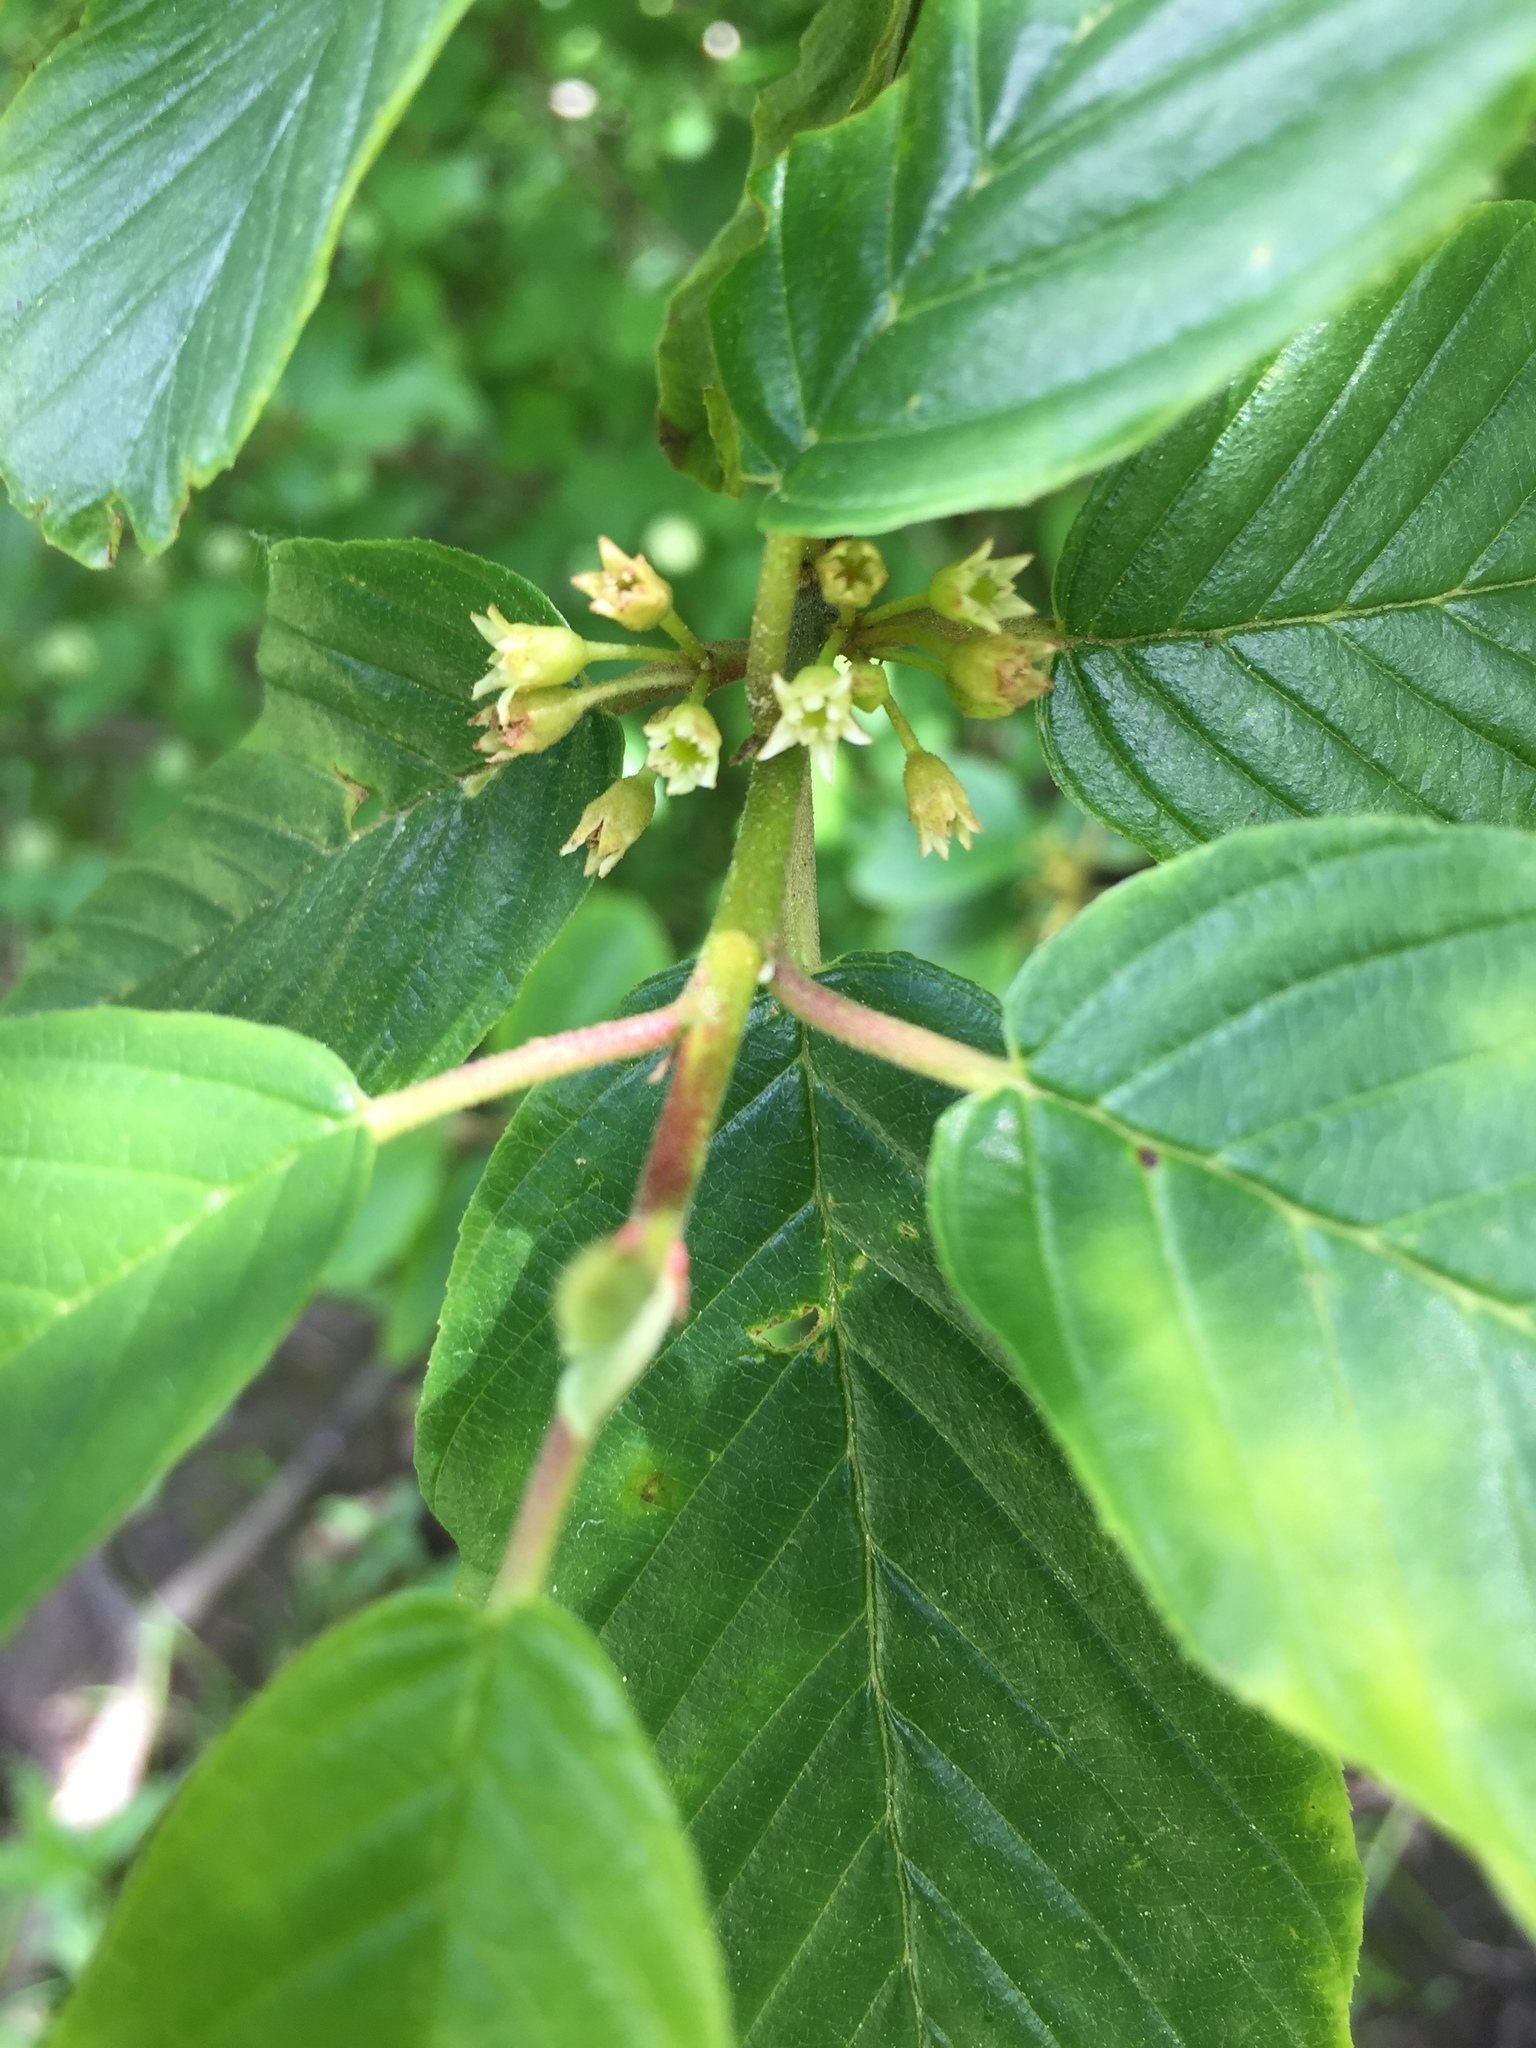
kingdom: Plantae
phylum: Tracheophyta
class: Magnoliopsida
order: Rosales
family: Rhamnaceae
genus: Frangula
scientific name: Frangula purshiana
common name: Cascara buckthorn
